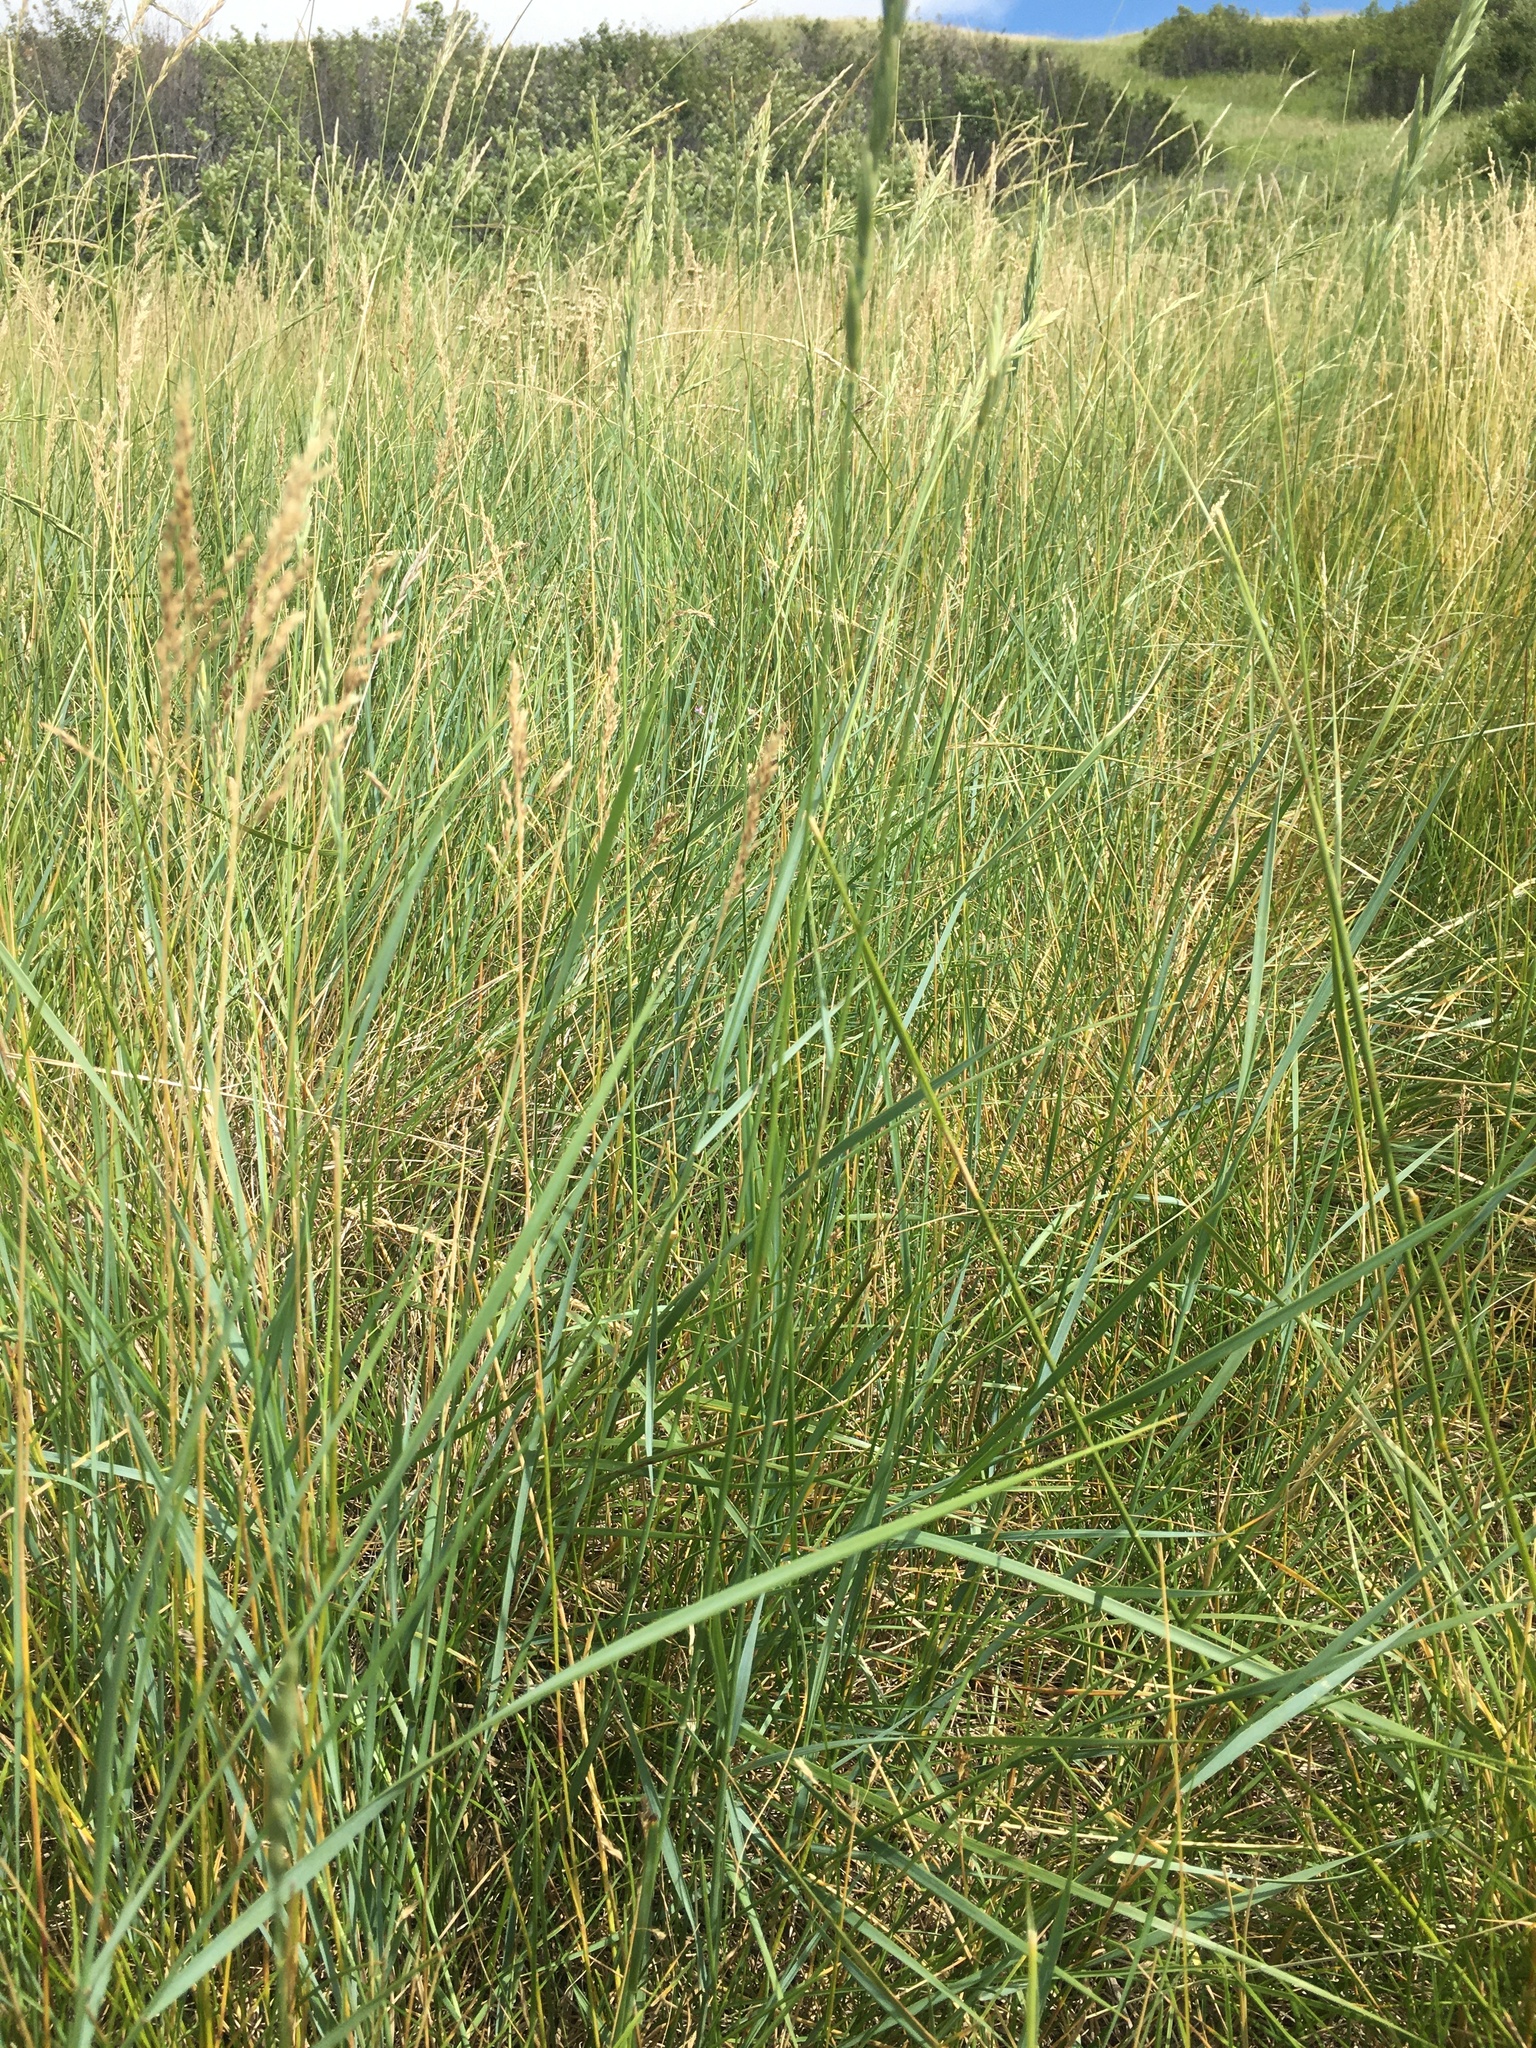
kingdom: Plantae
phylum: Tracheophyta
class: Liliopsida
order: Poales
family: Poaceae
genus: Elymus
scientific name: Elymus smithii
